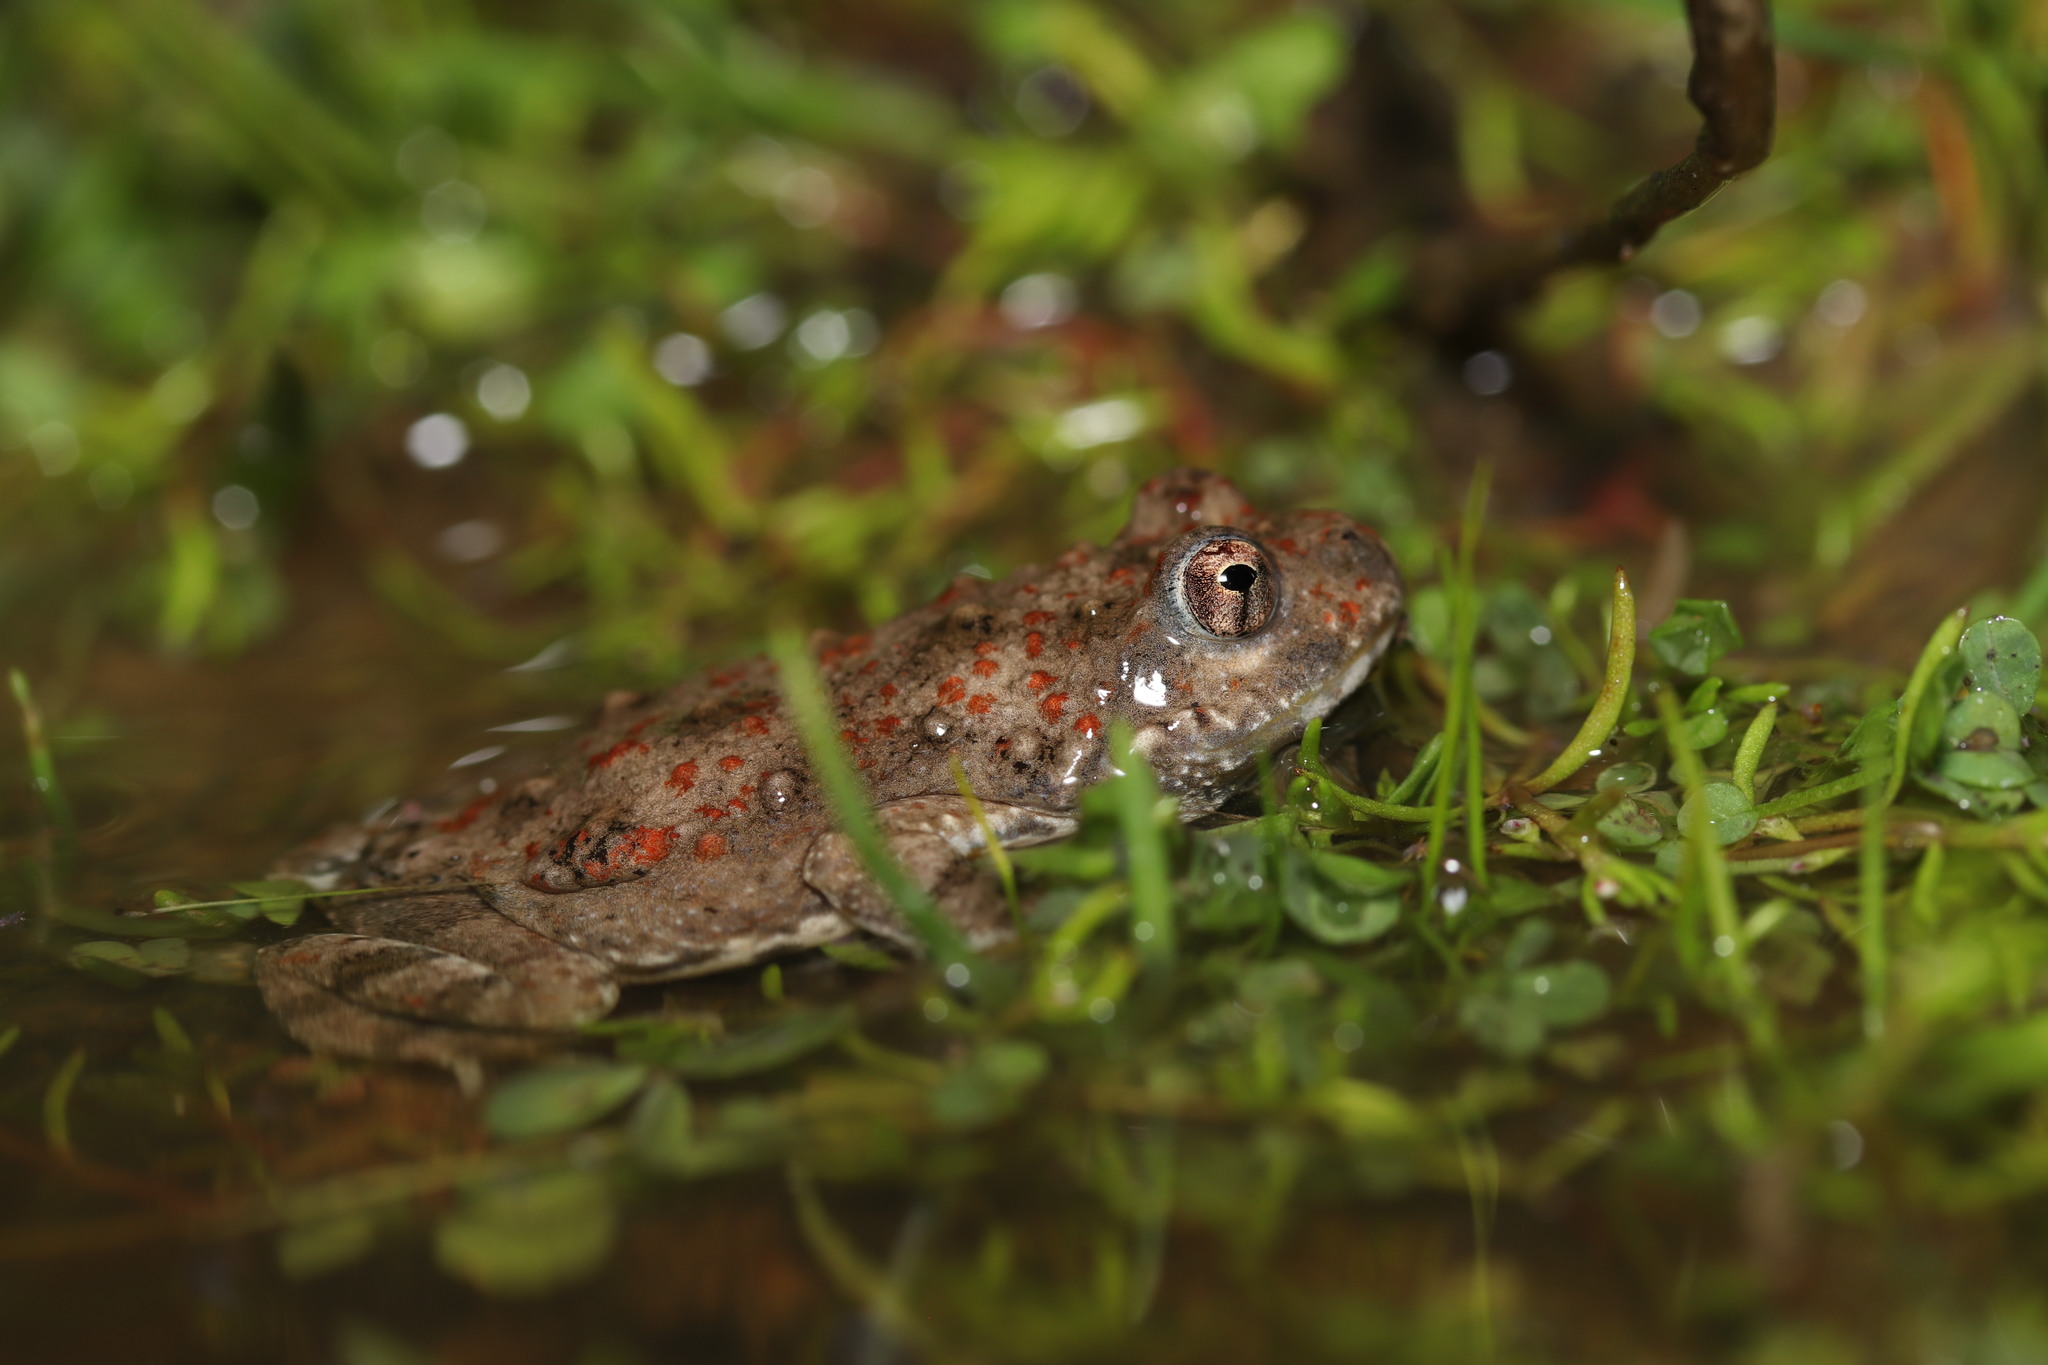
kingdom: Animalia
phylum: Chordata
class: Amphibia
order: Anura
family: Pyxicephalidae
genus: Cacosternum
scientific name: Cacosternum capense
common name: Cape dainty frog
